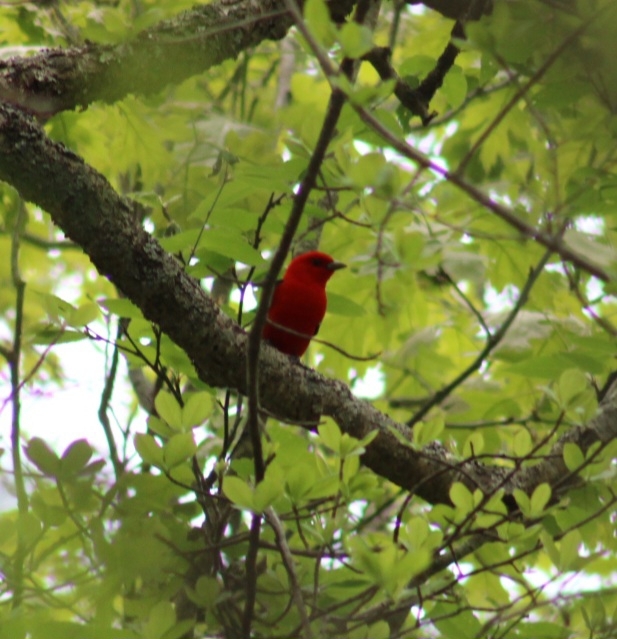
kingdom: Animalia
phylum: Chordata
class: Aves
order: Passeriformes
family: Cardinalidae
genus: Piranga
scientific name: Piranga olivacea
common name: Scarlet tanager
